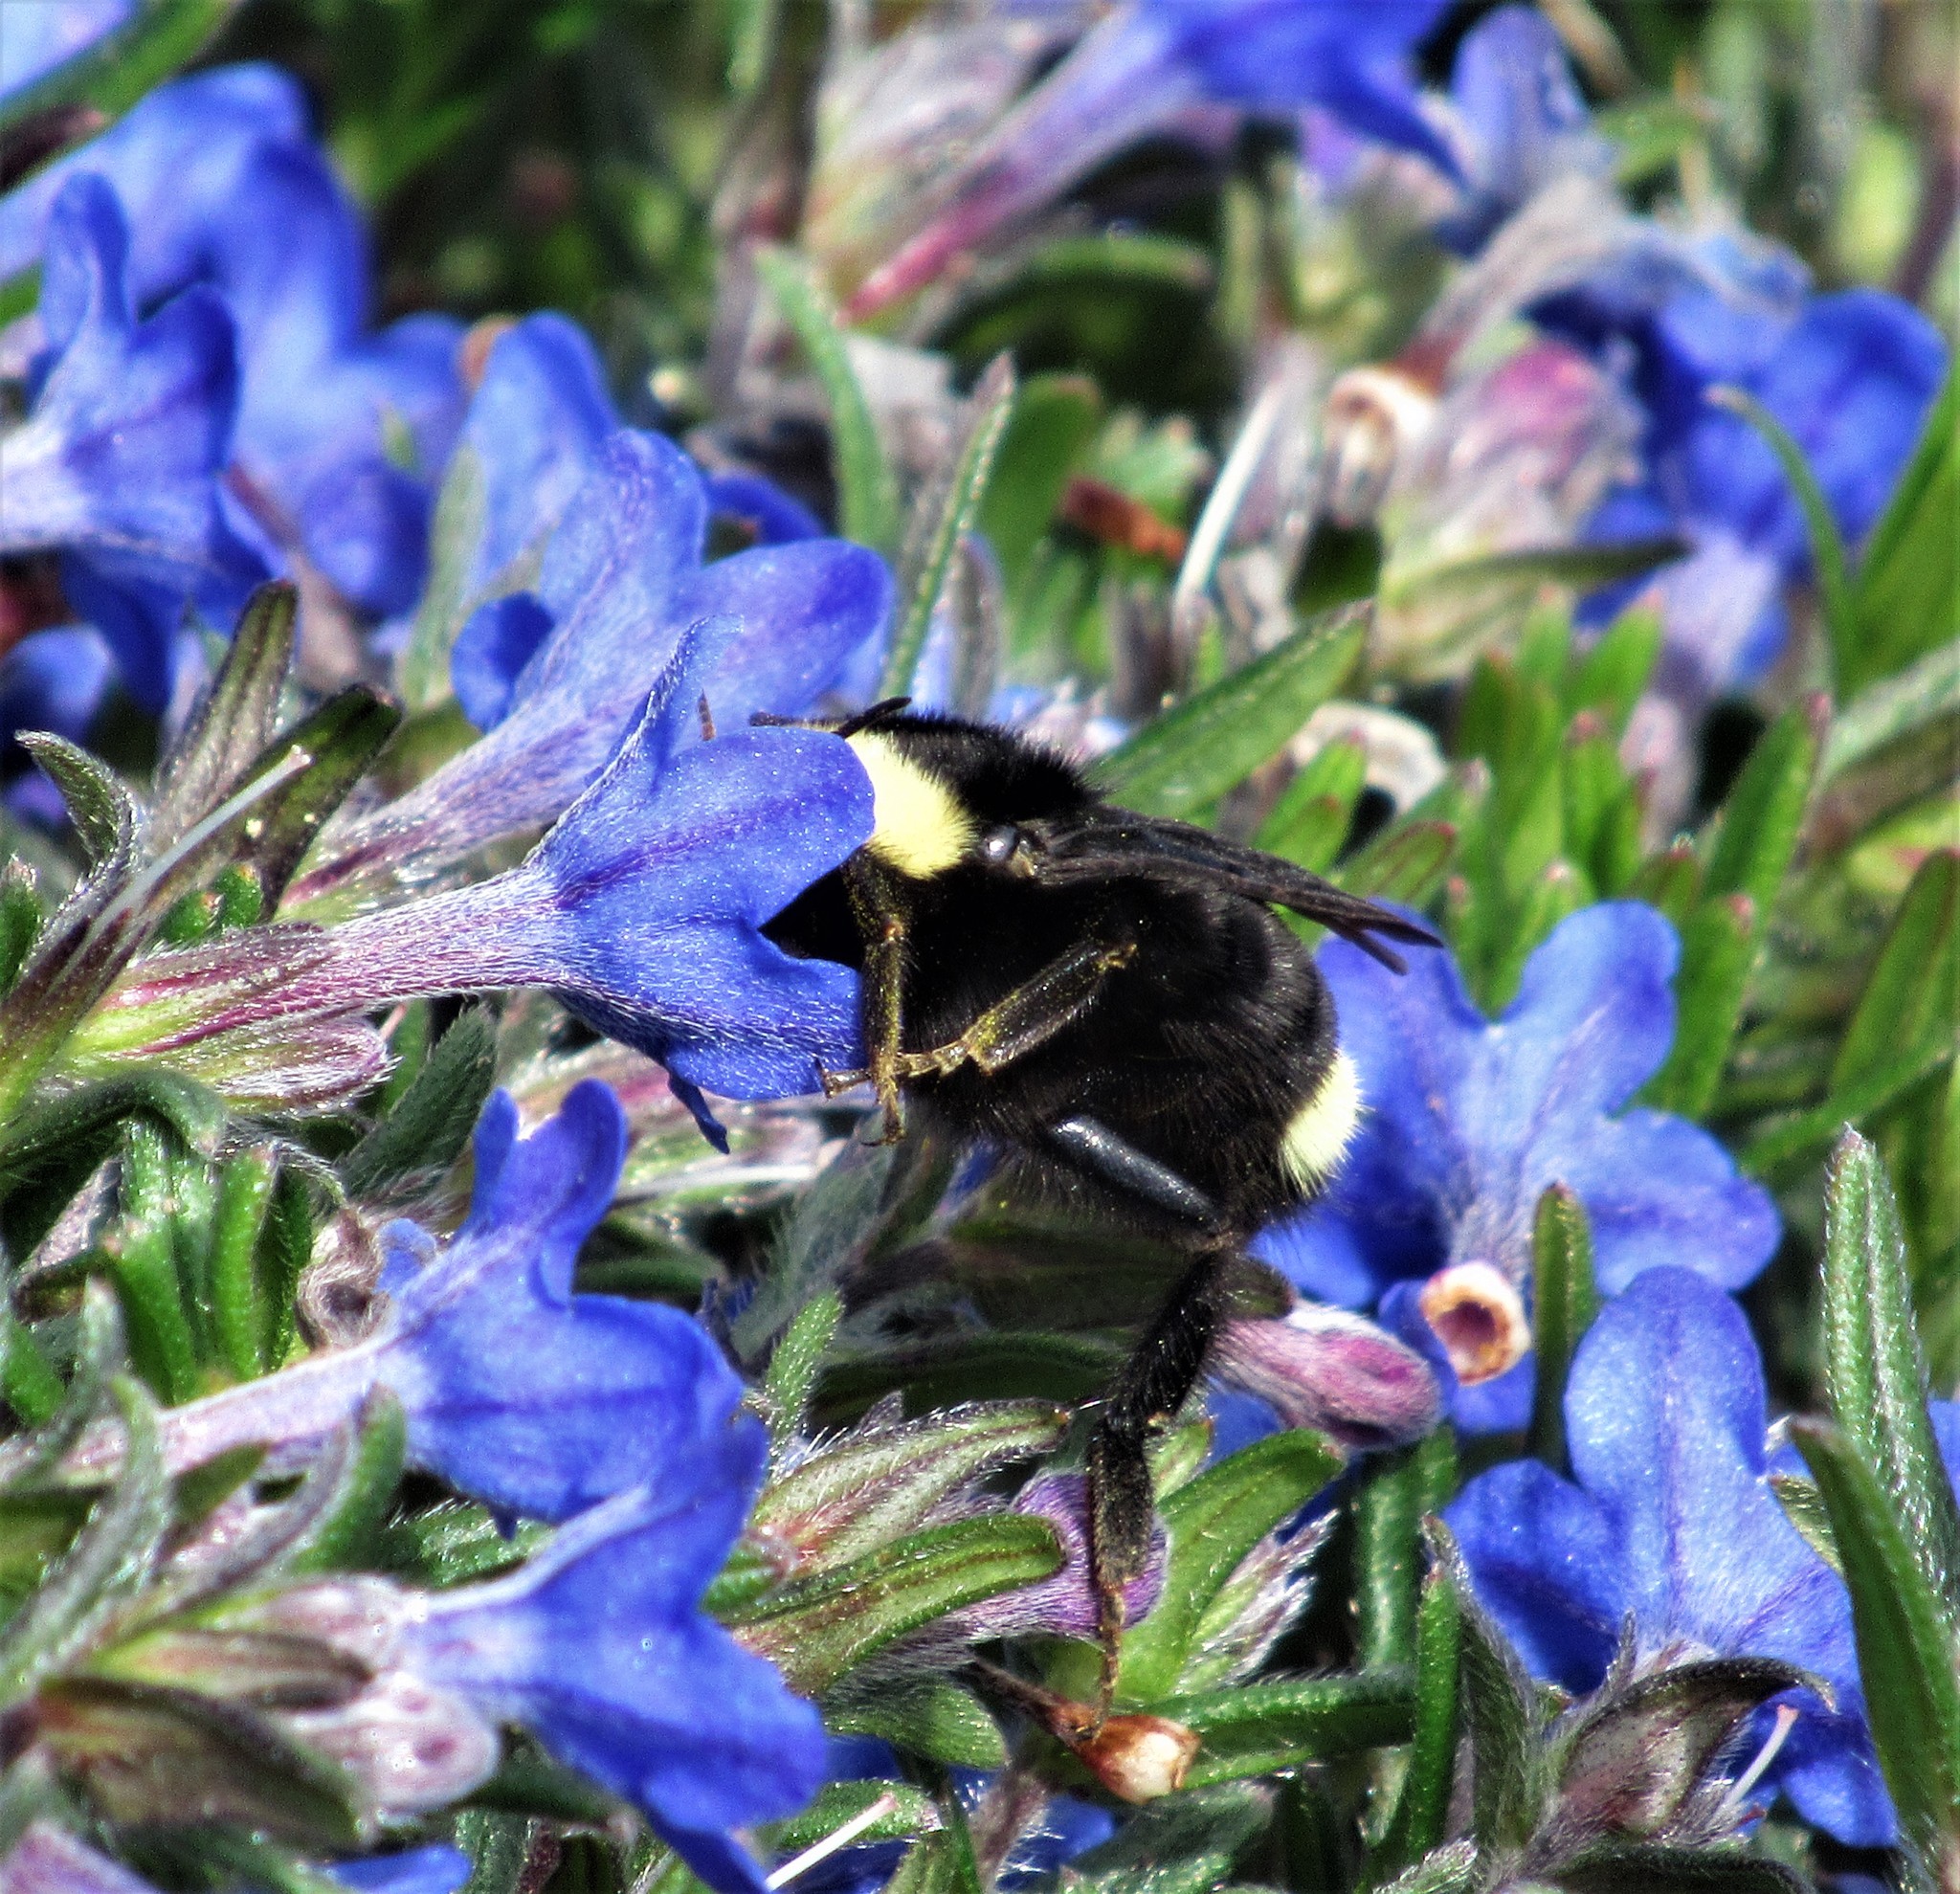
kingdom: Animalia
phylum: Arthropoda
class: Insecta
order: Hymenoptera
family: Apidae
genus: Bombus
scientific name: Bombus vosnesenskii
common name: Vosnesensky bumble bee
